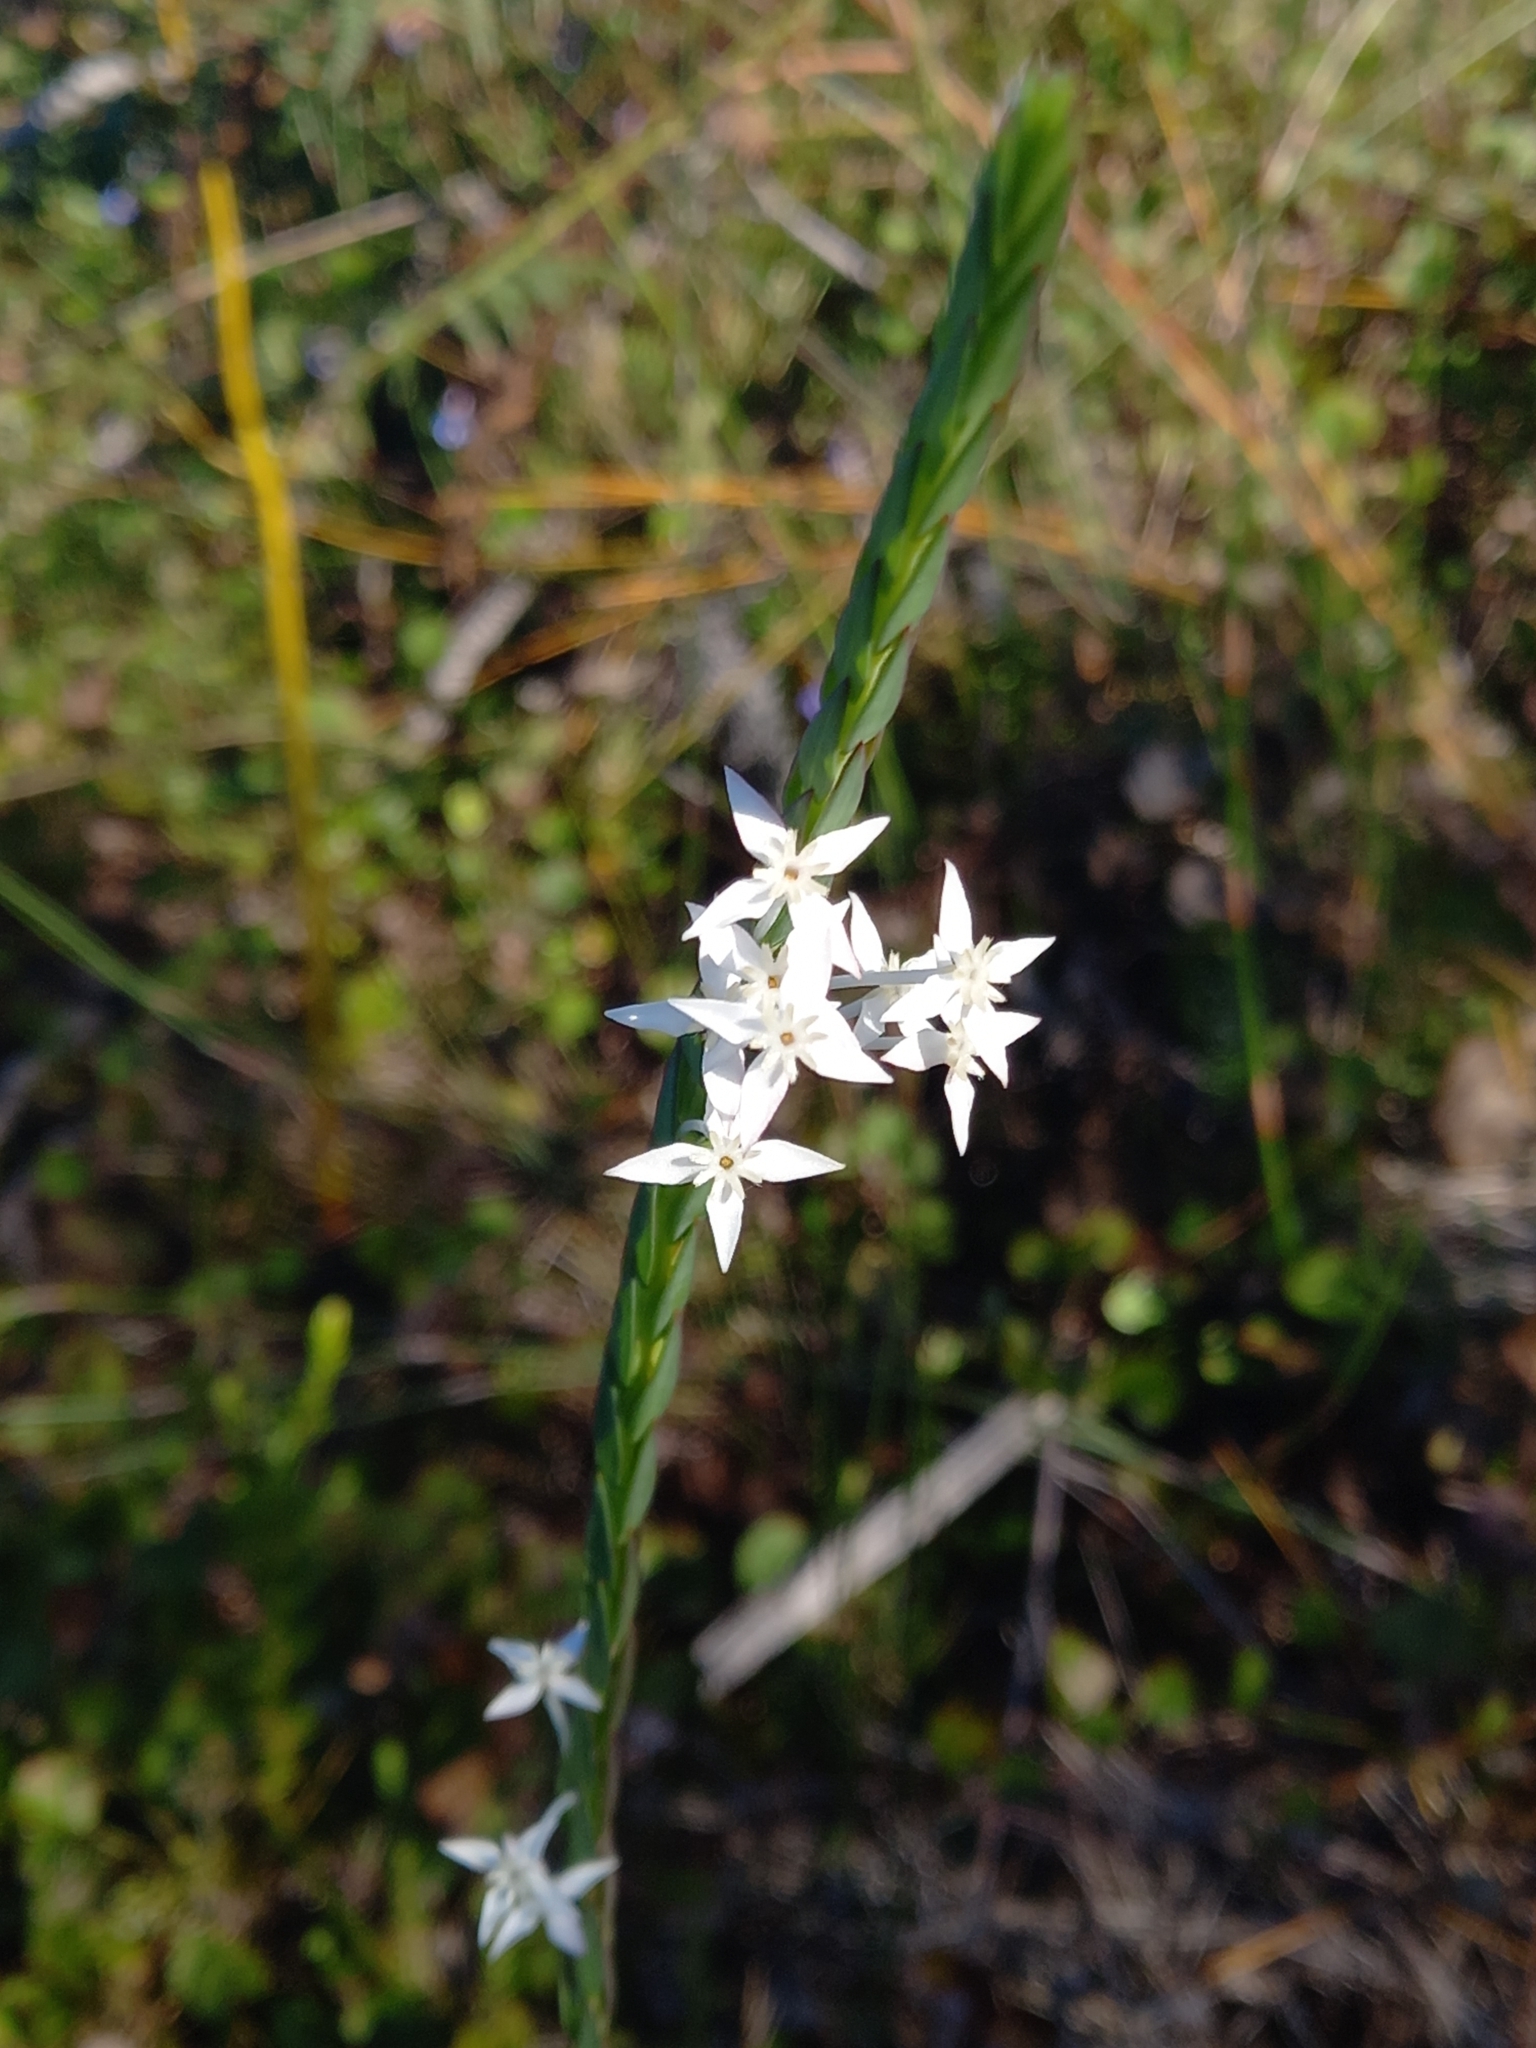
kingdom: Plantae
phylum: Tracheophyta
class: Magnoliopsida
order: Malvales
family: Thymelaeaceae
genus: Struthiola
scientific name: Struthiola myrsinites
